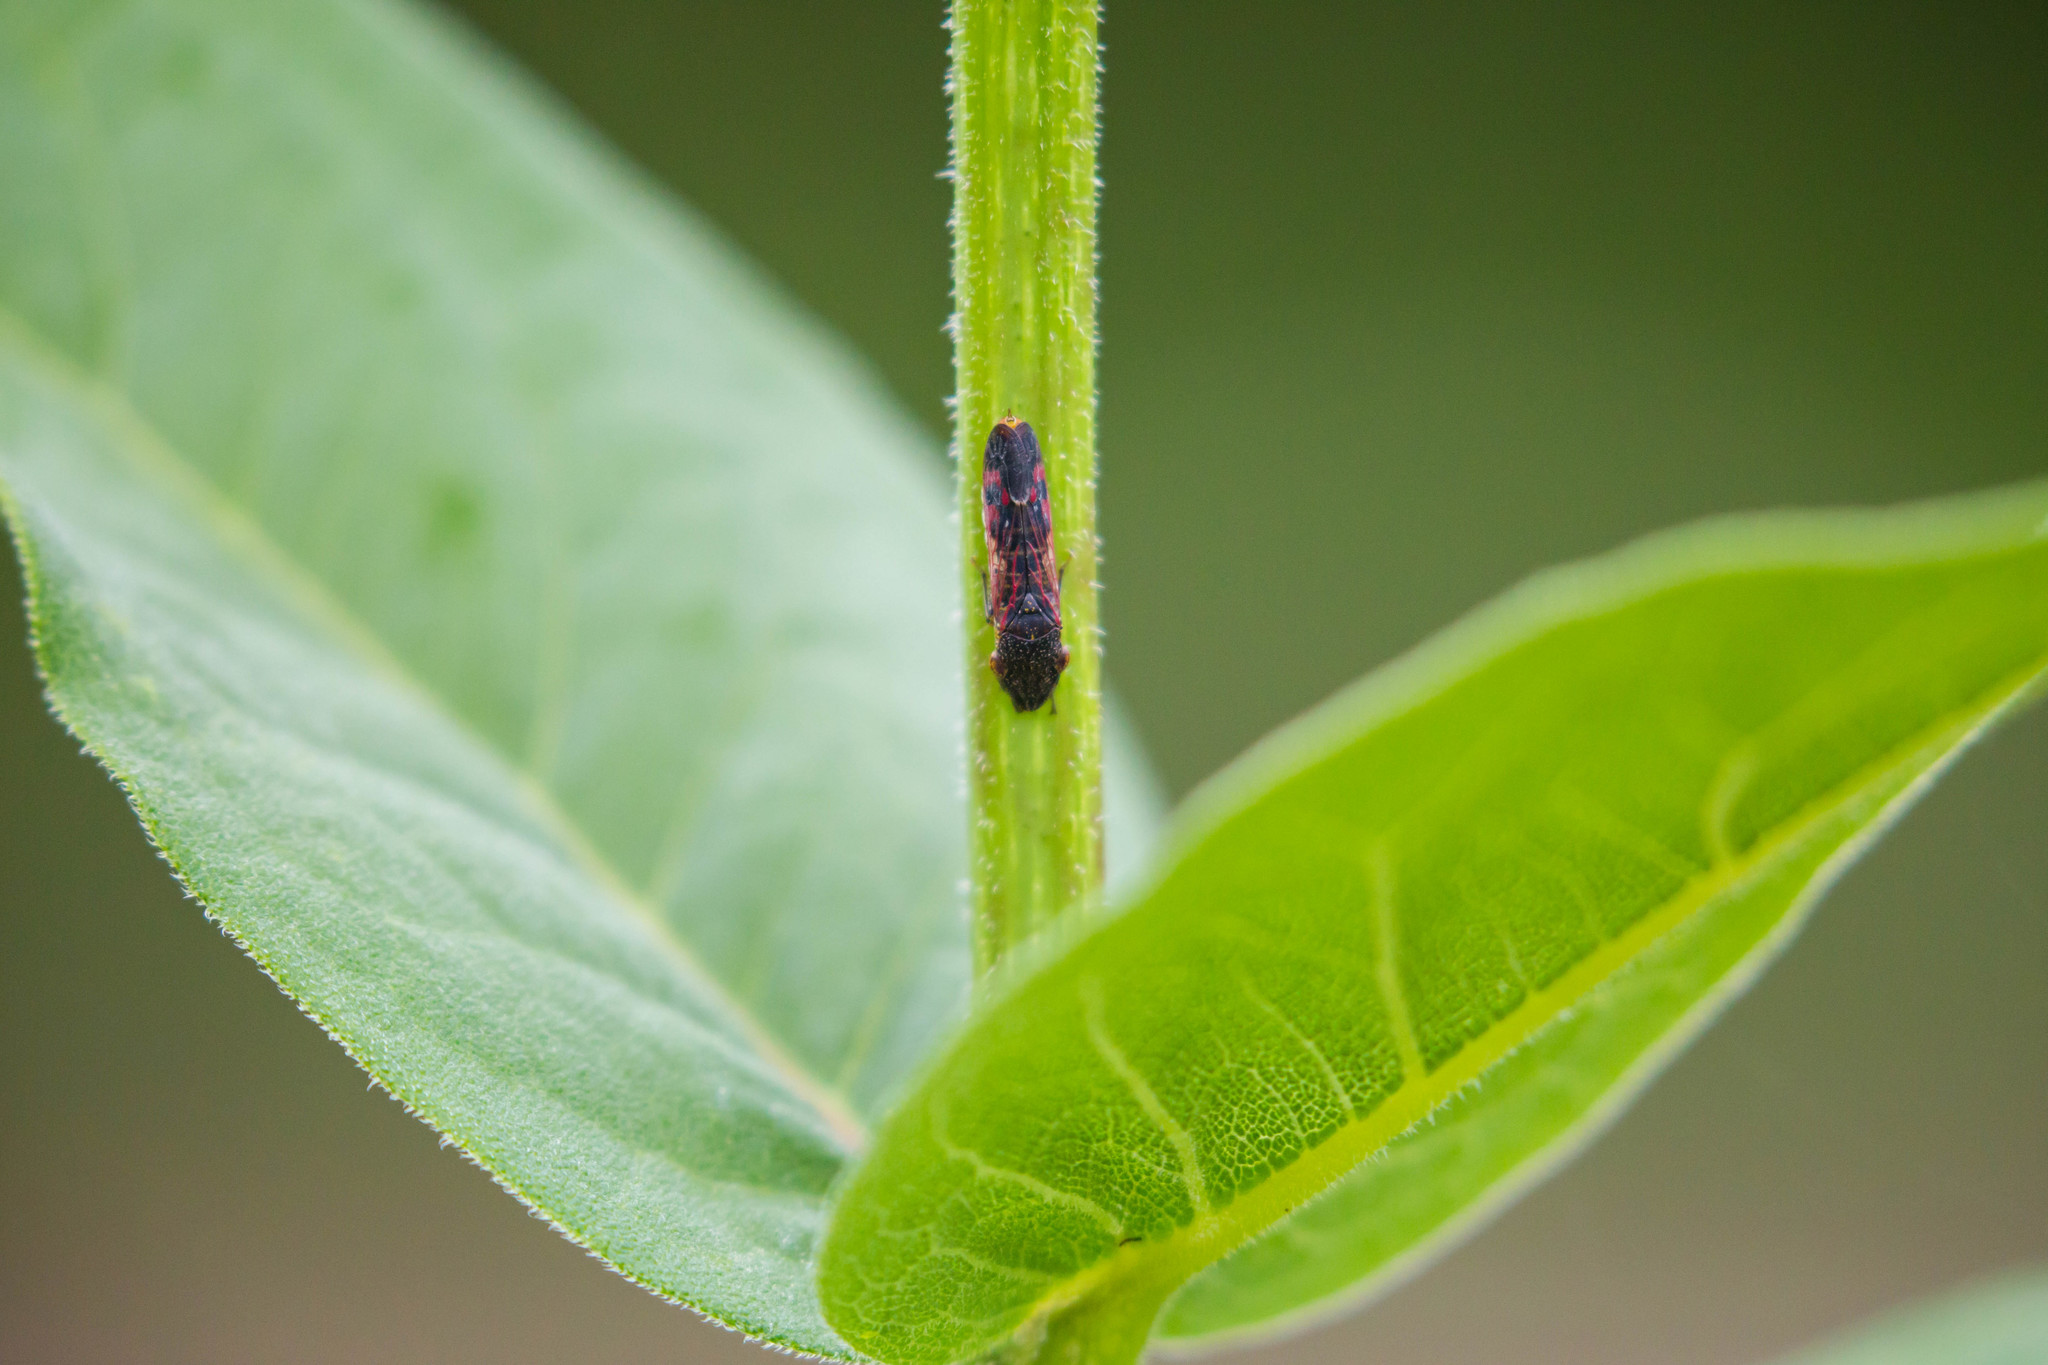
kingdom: Animalia
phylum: Arthropoda
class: Insecta
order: Hemiptera
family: Cicadellidae
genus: Homalodisca
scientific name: Homalodisca vitripennis
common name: Glassy-winged sharpshooter
